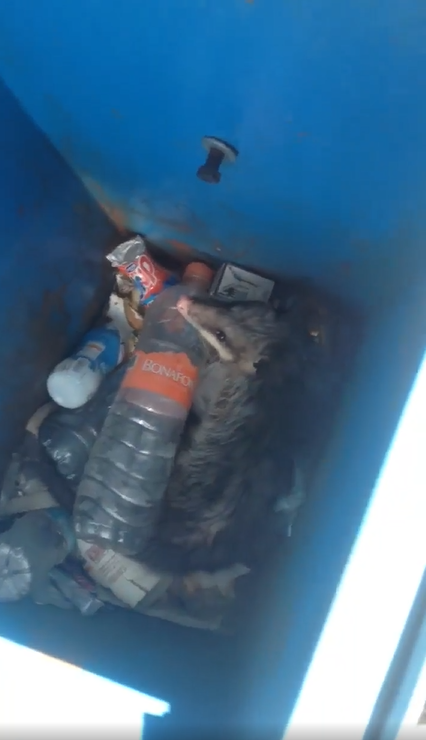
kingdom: Animalia
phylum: Chordata
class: Mammalia
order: Didelphimorphia
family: Didelphidae
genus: Didelphis
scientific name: Didelphis virginiana
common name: Virginia opossum
